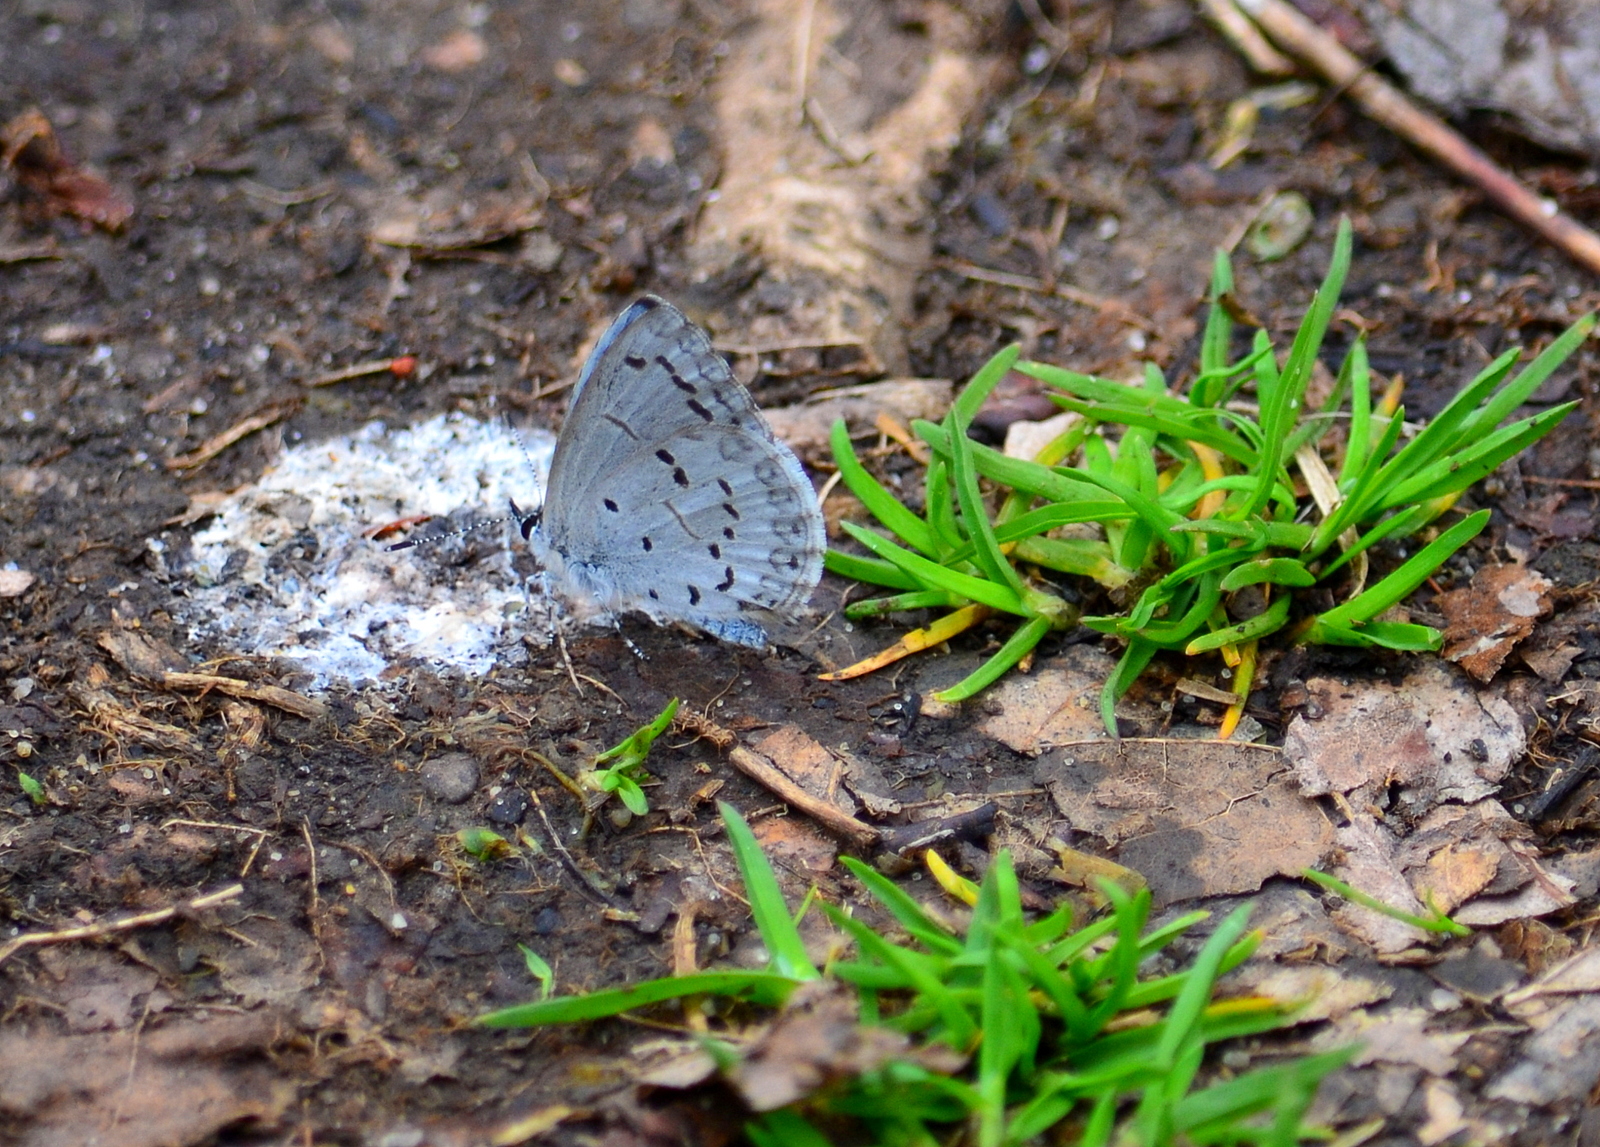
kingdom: Animalia
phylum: Arthropoda
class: Insecta
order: Lepidoptera
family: Lycaenidae
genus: Celastrina
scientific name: Celastrina ladon
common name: Spring azure
